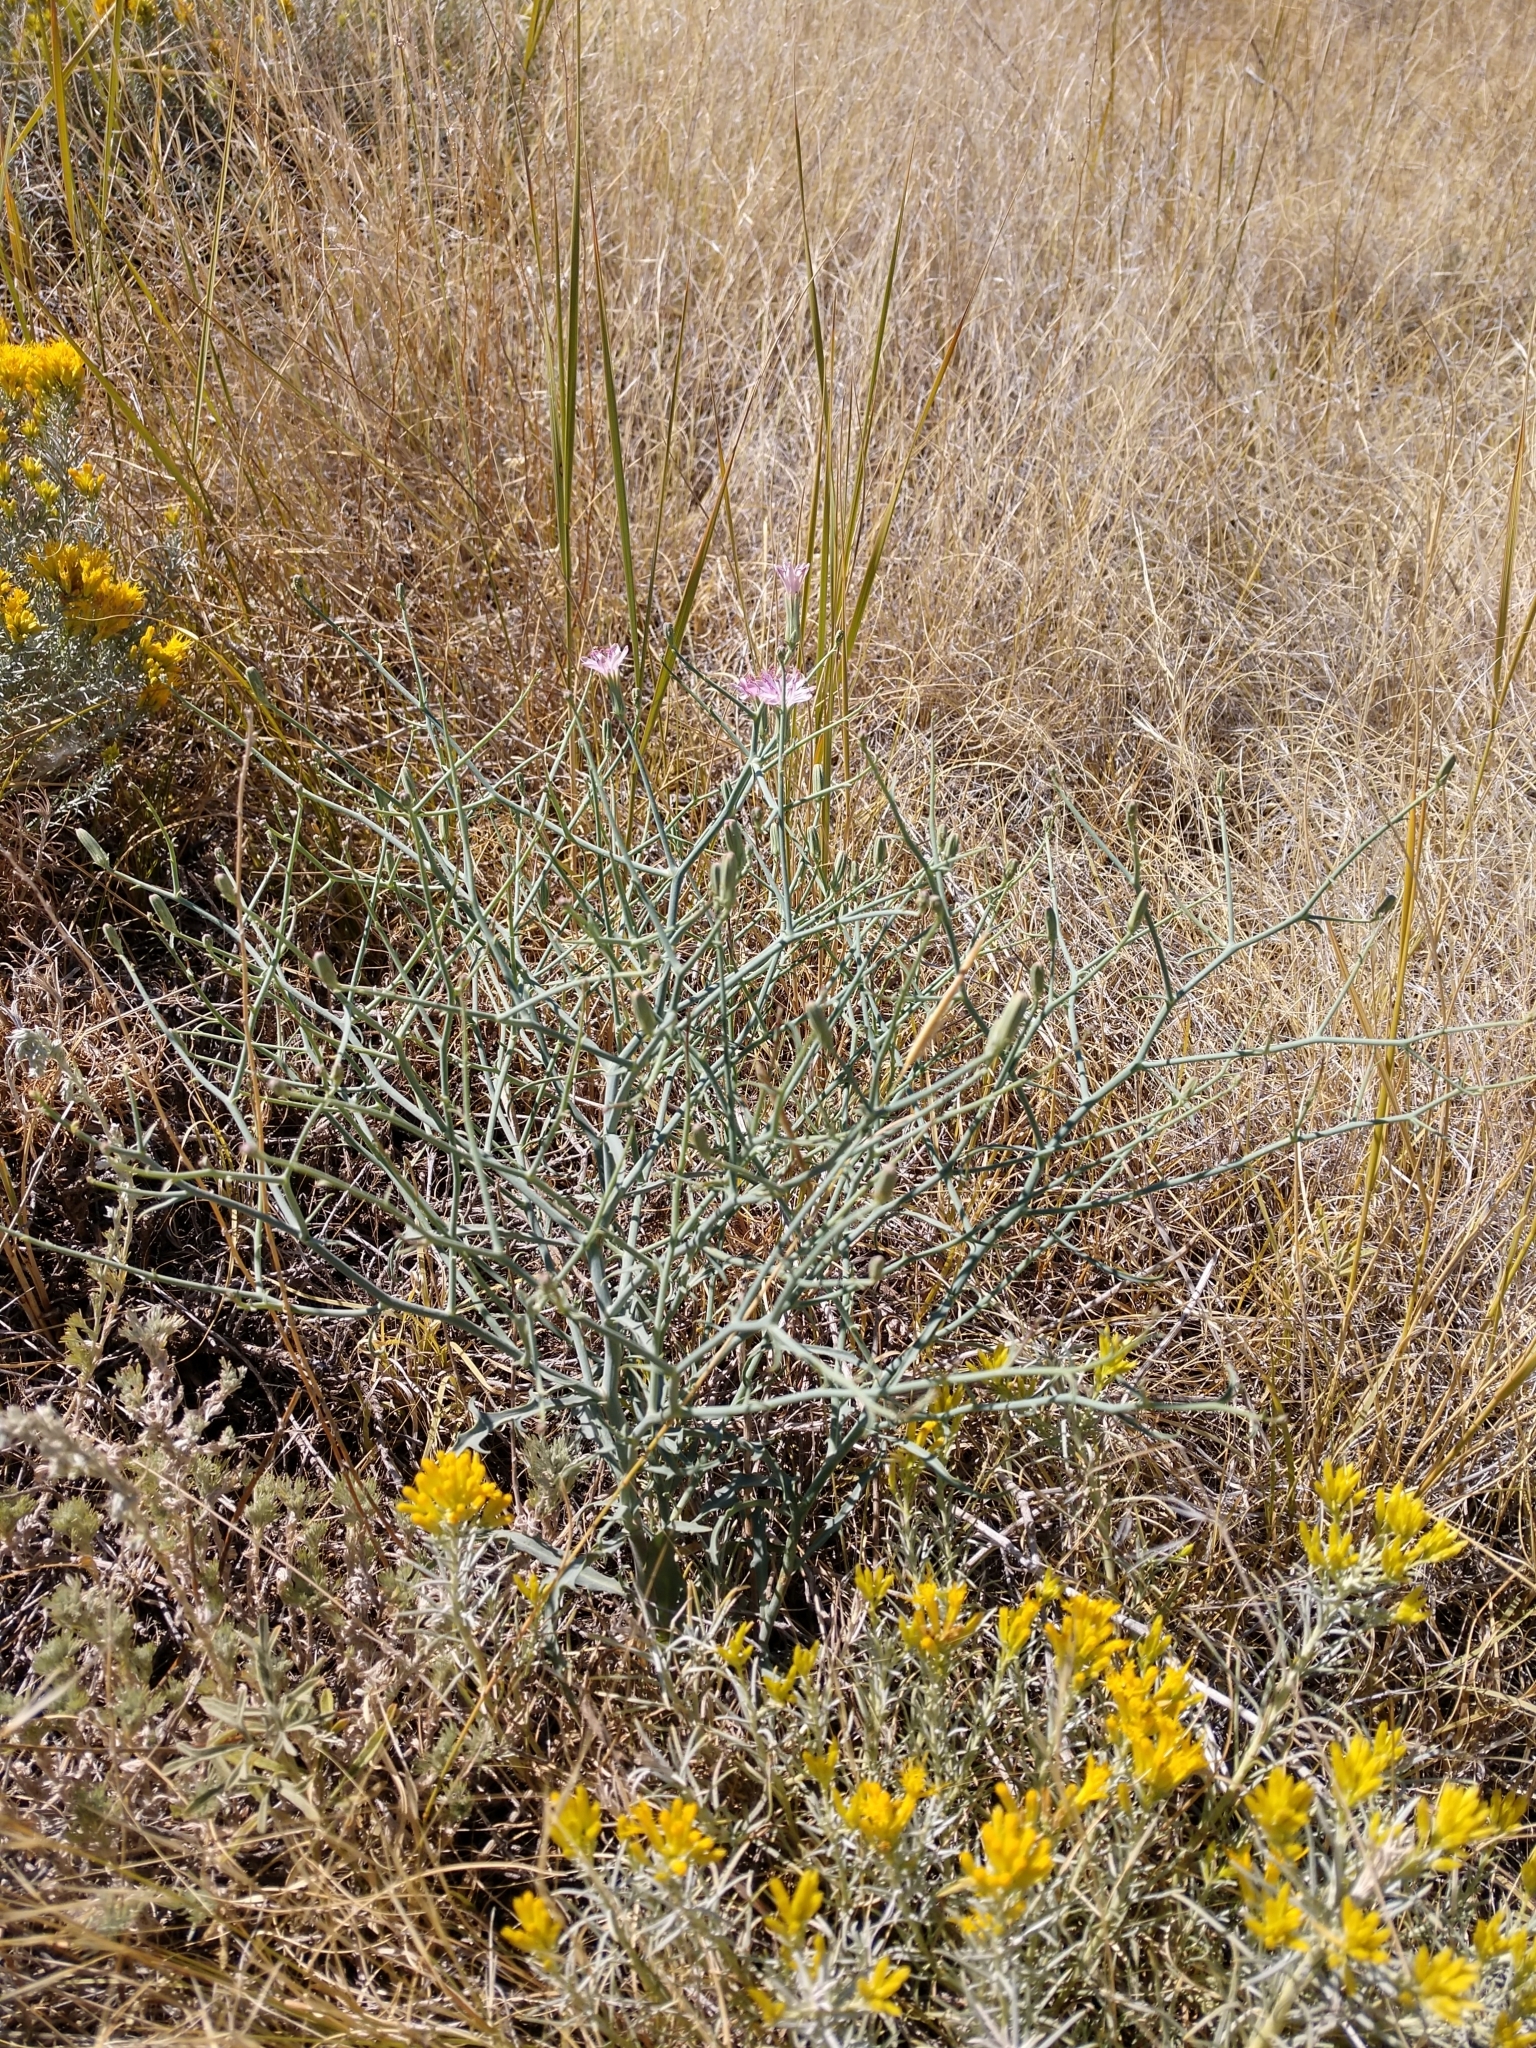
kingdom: Plantae
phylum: Tracheophyta
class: Magnoliopsida
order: Asterales
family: Asteraceae
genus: Lygodesmia
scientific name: Lygodesmia juncea
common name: Common skeletonweed
